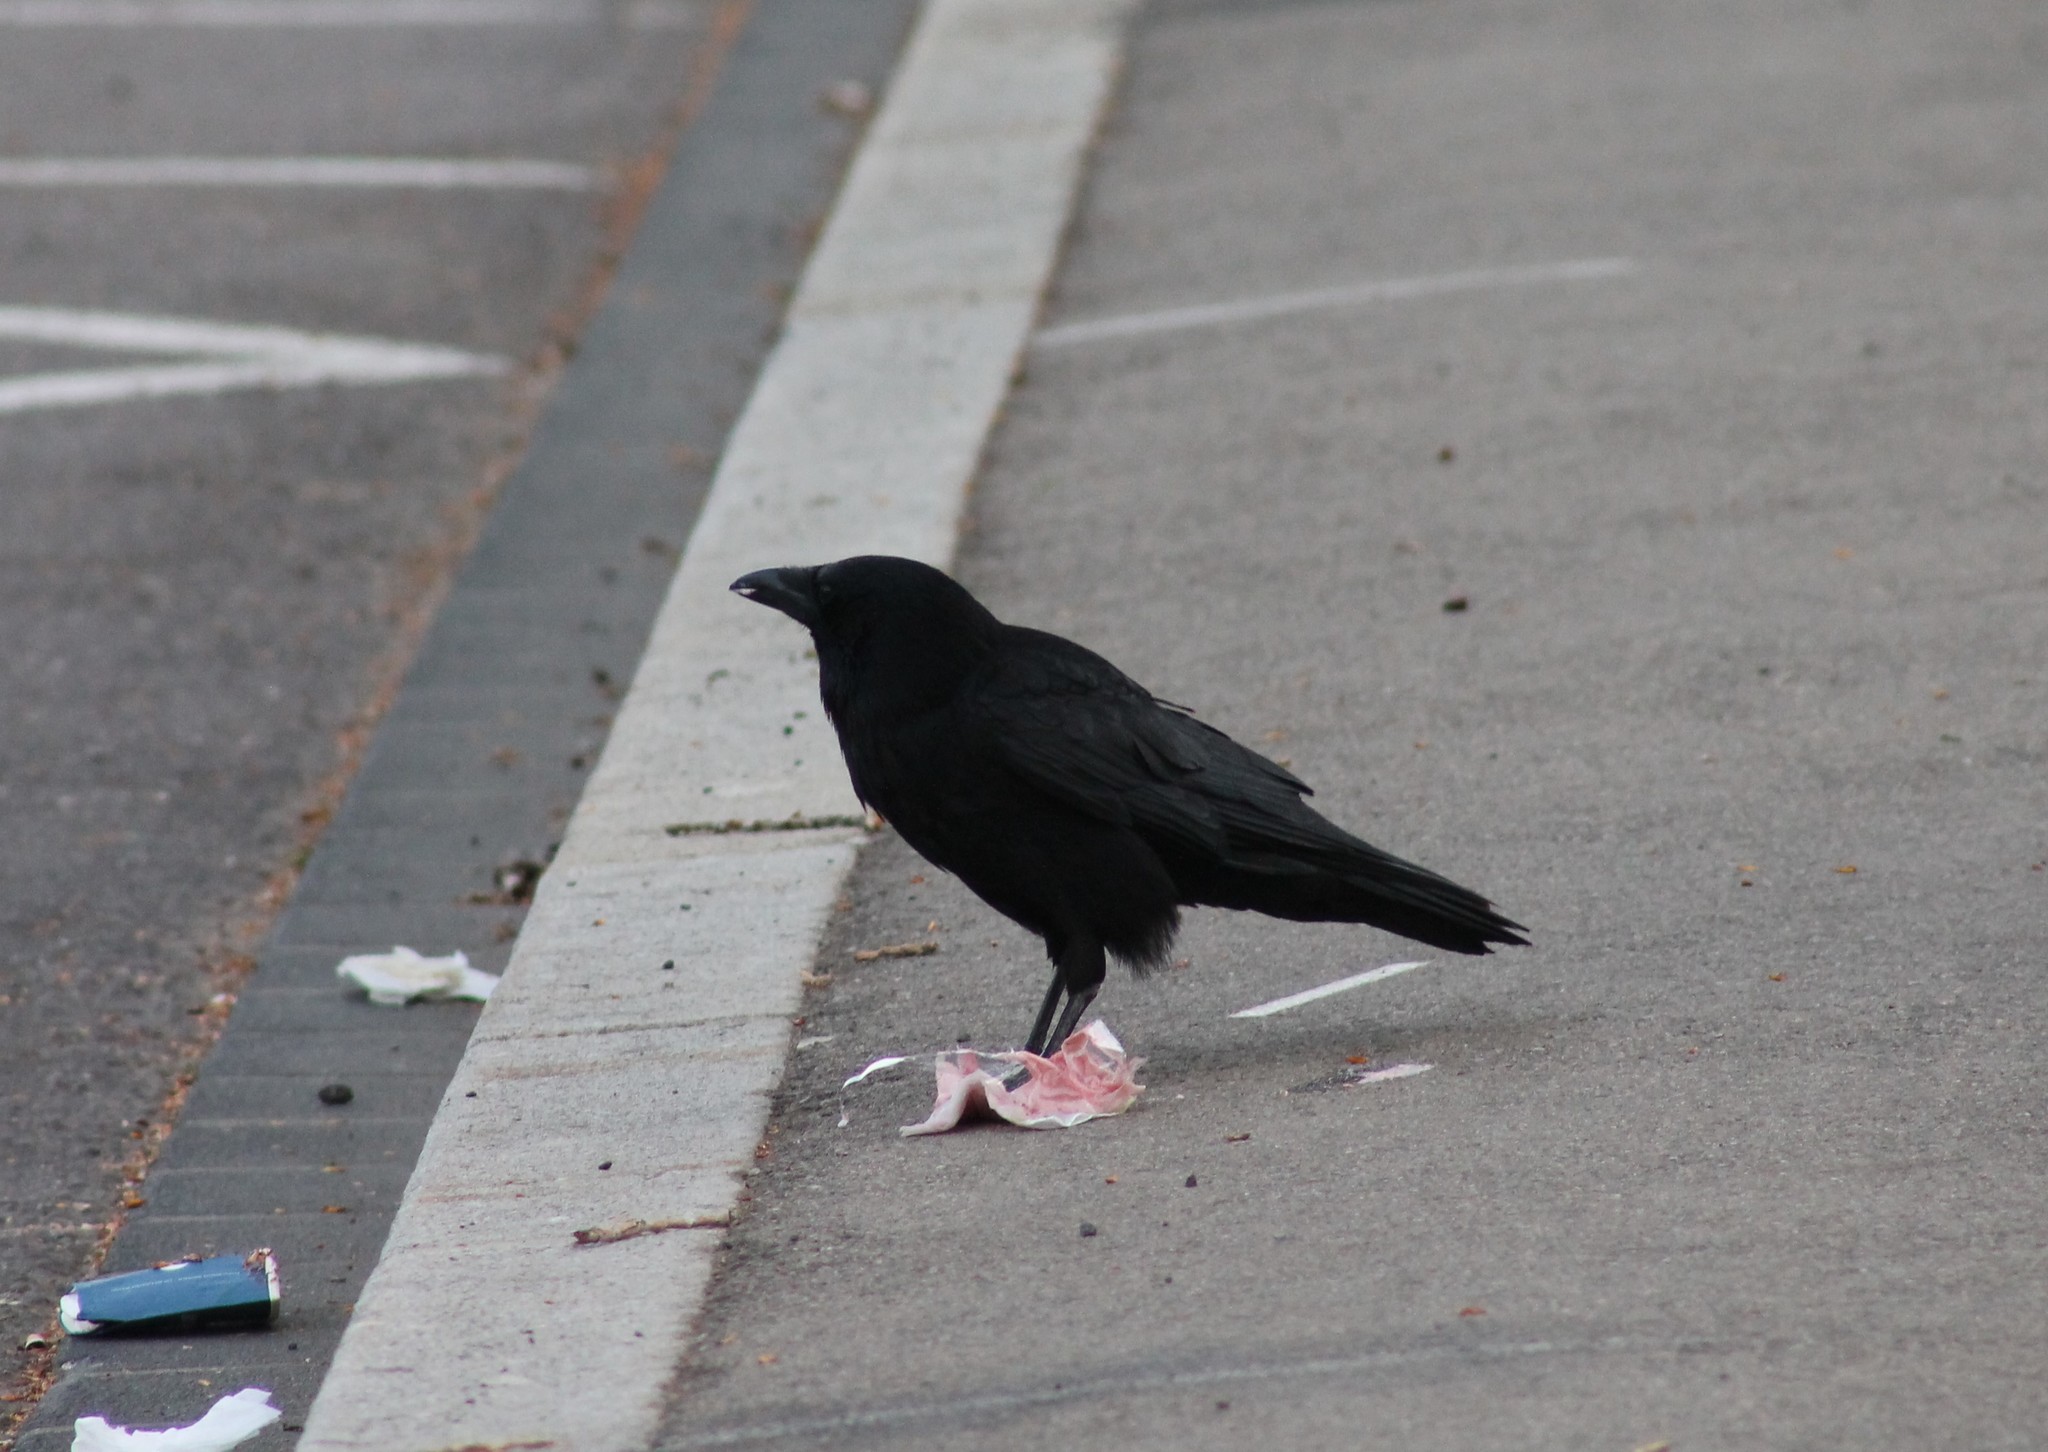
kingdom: Animalia
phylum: Chordata
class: Aves
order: Passeriformes
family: Corvidae
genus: Corvus
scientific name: Corvus corone
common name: Carrion crow
